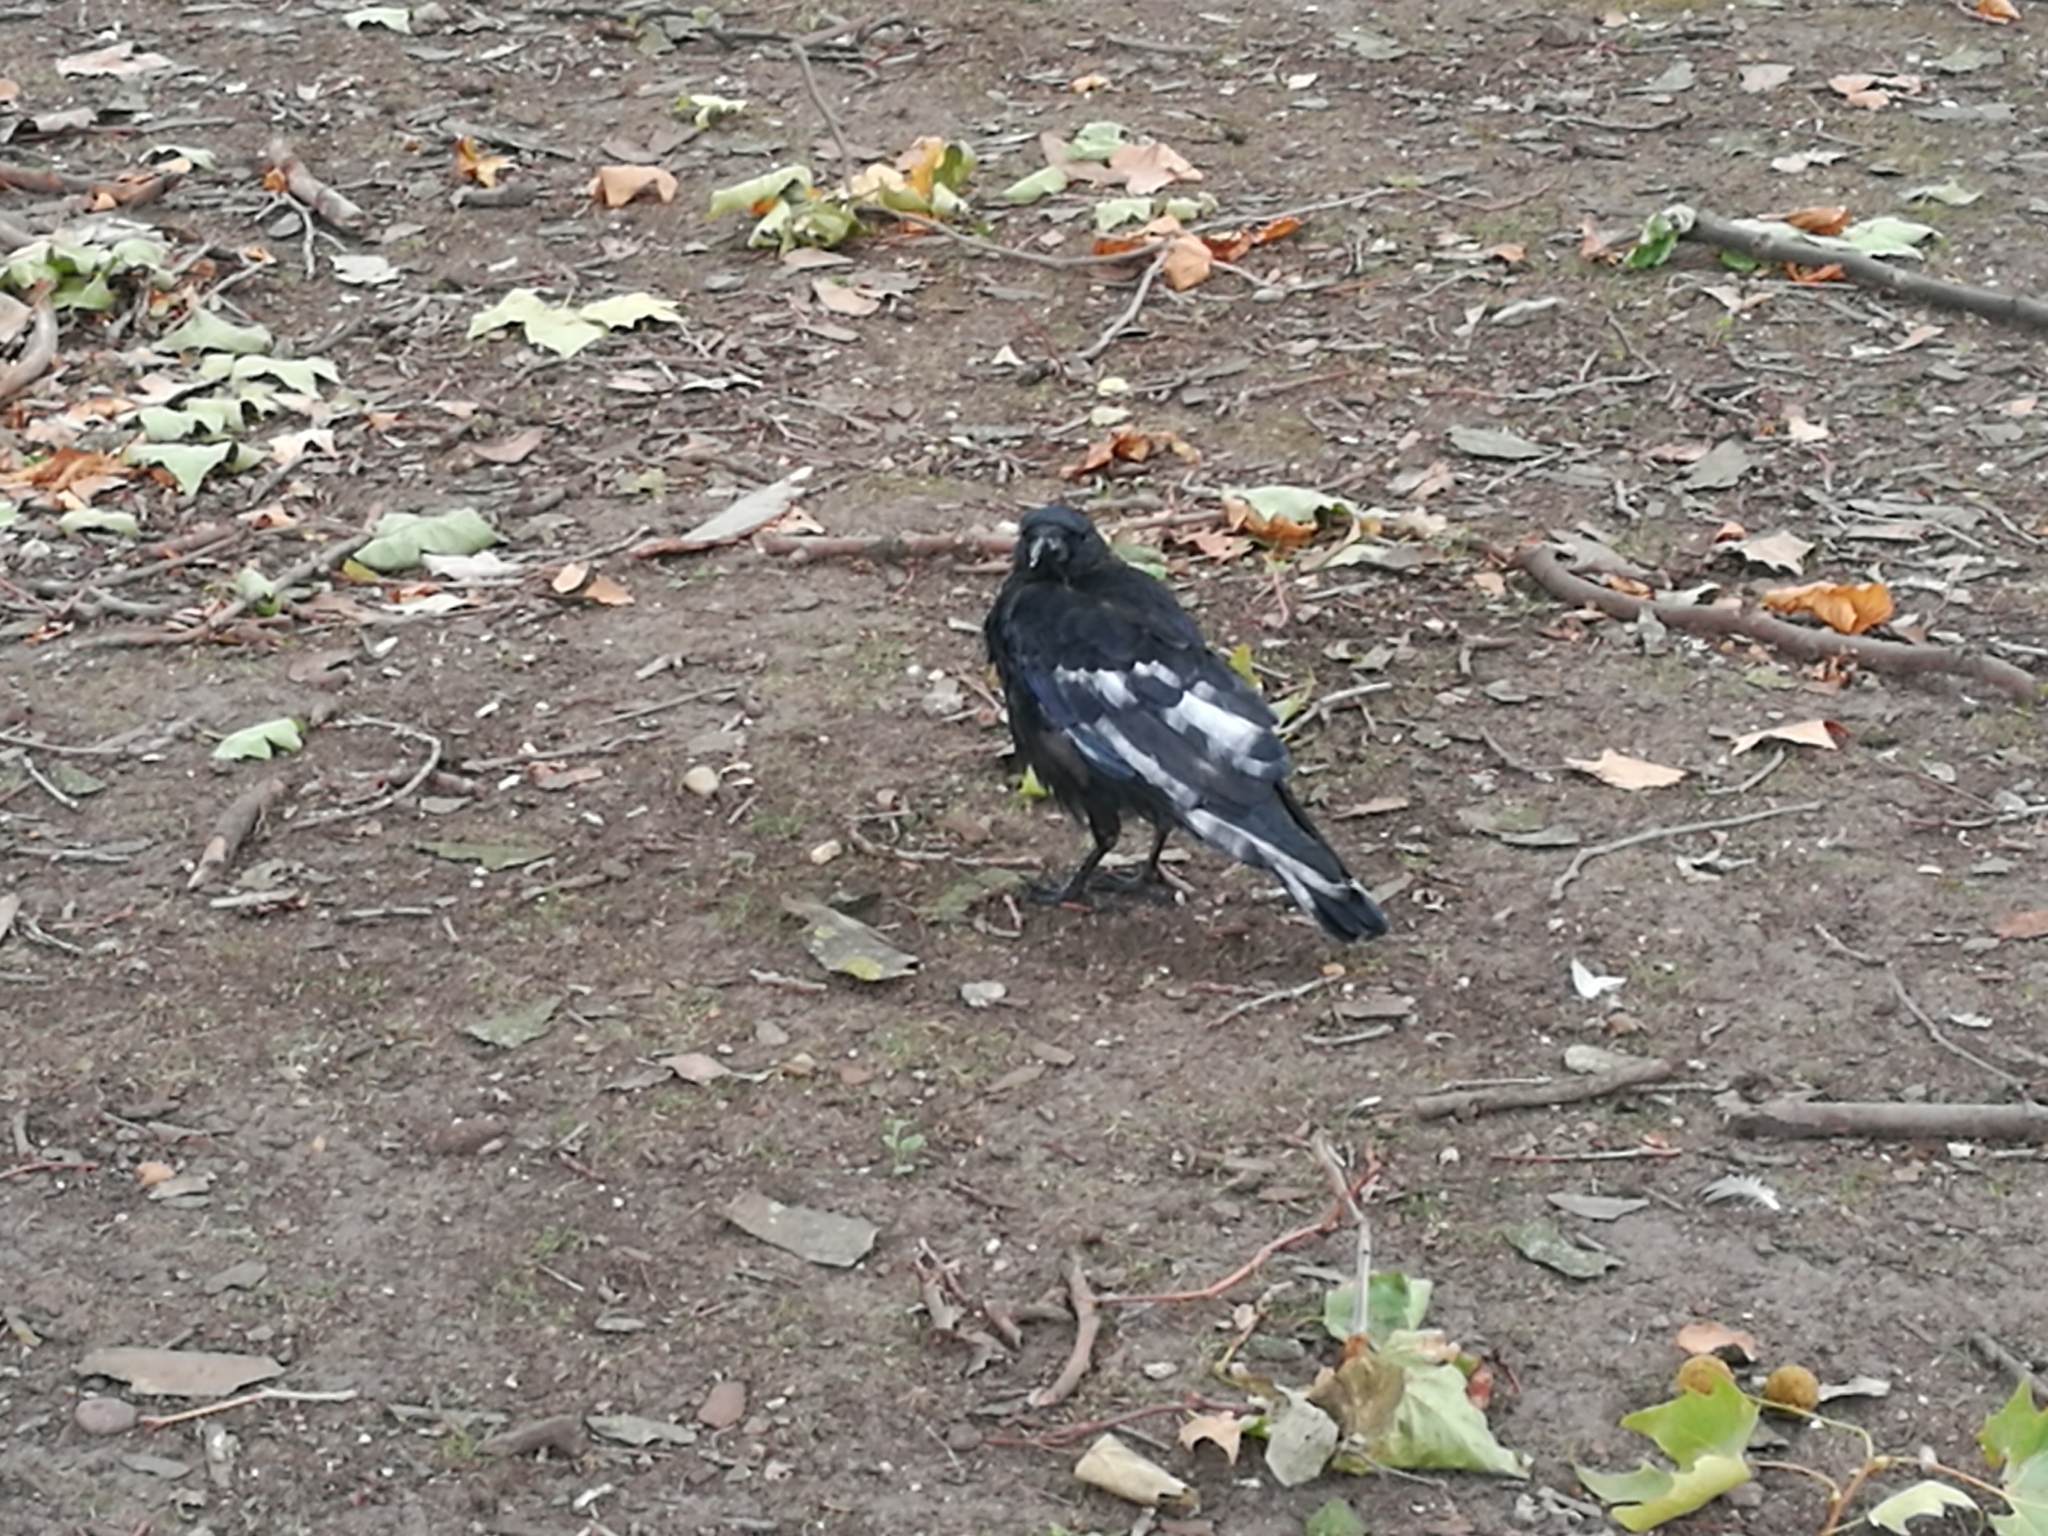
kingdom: Animalia
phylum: Chordata
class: Aves
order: Passeriformes
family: Corvidae
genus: Corvus
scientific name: Corvus corone
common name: Carrion crow
